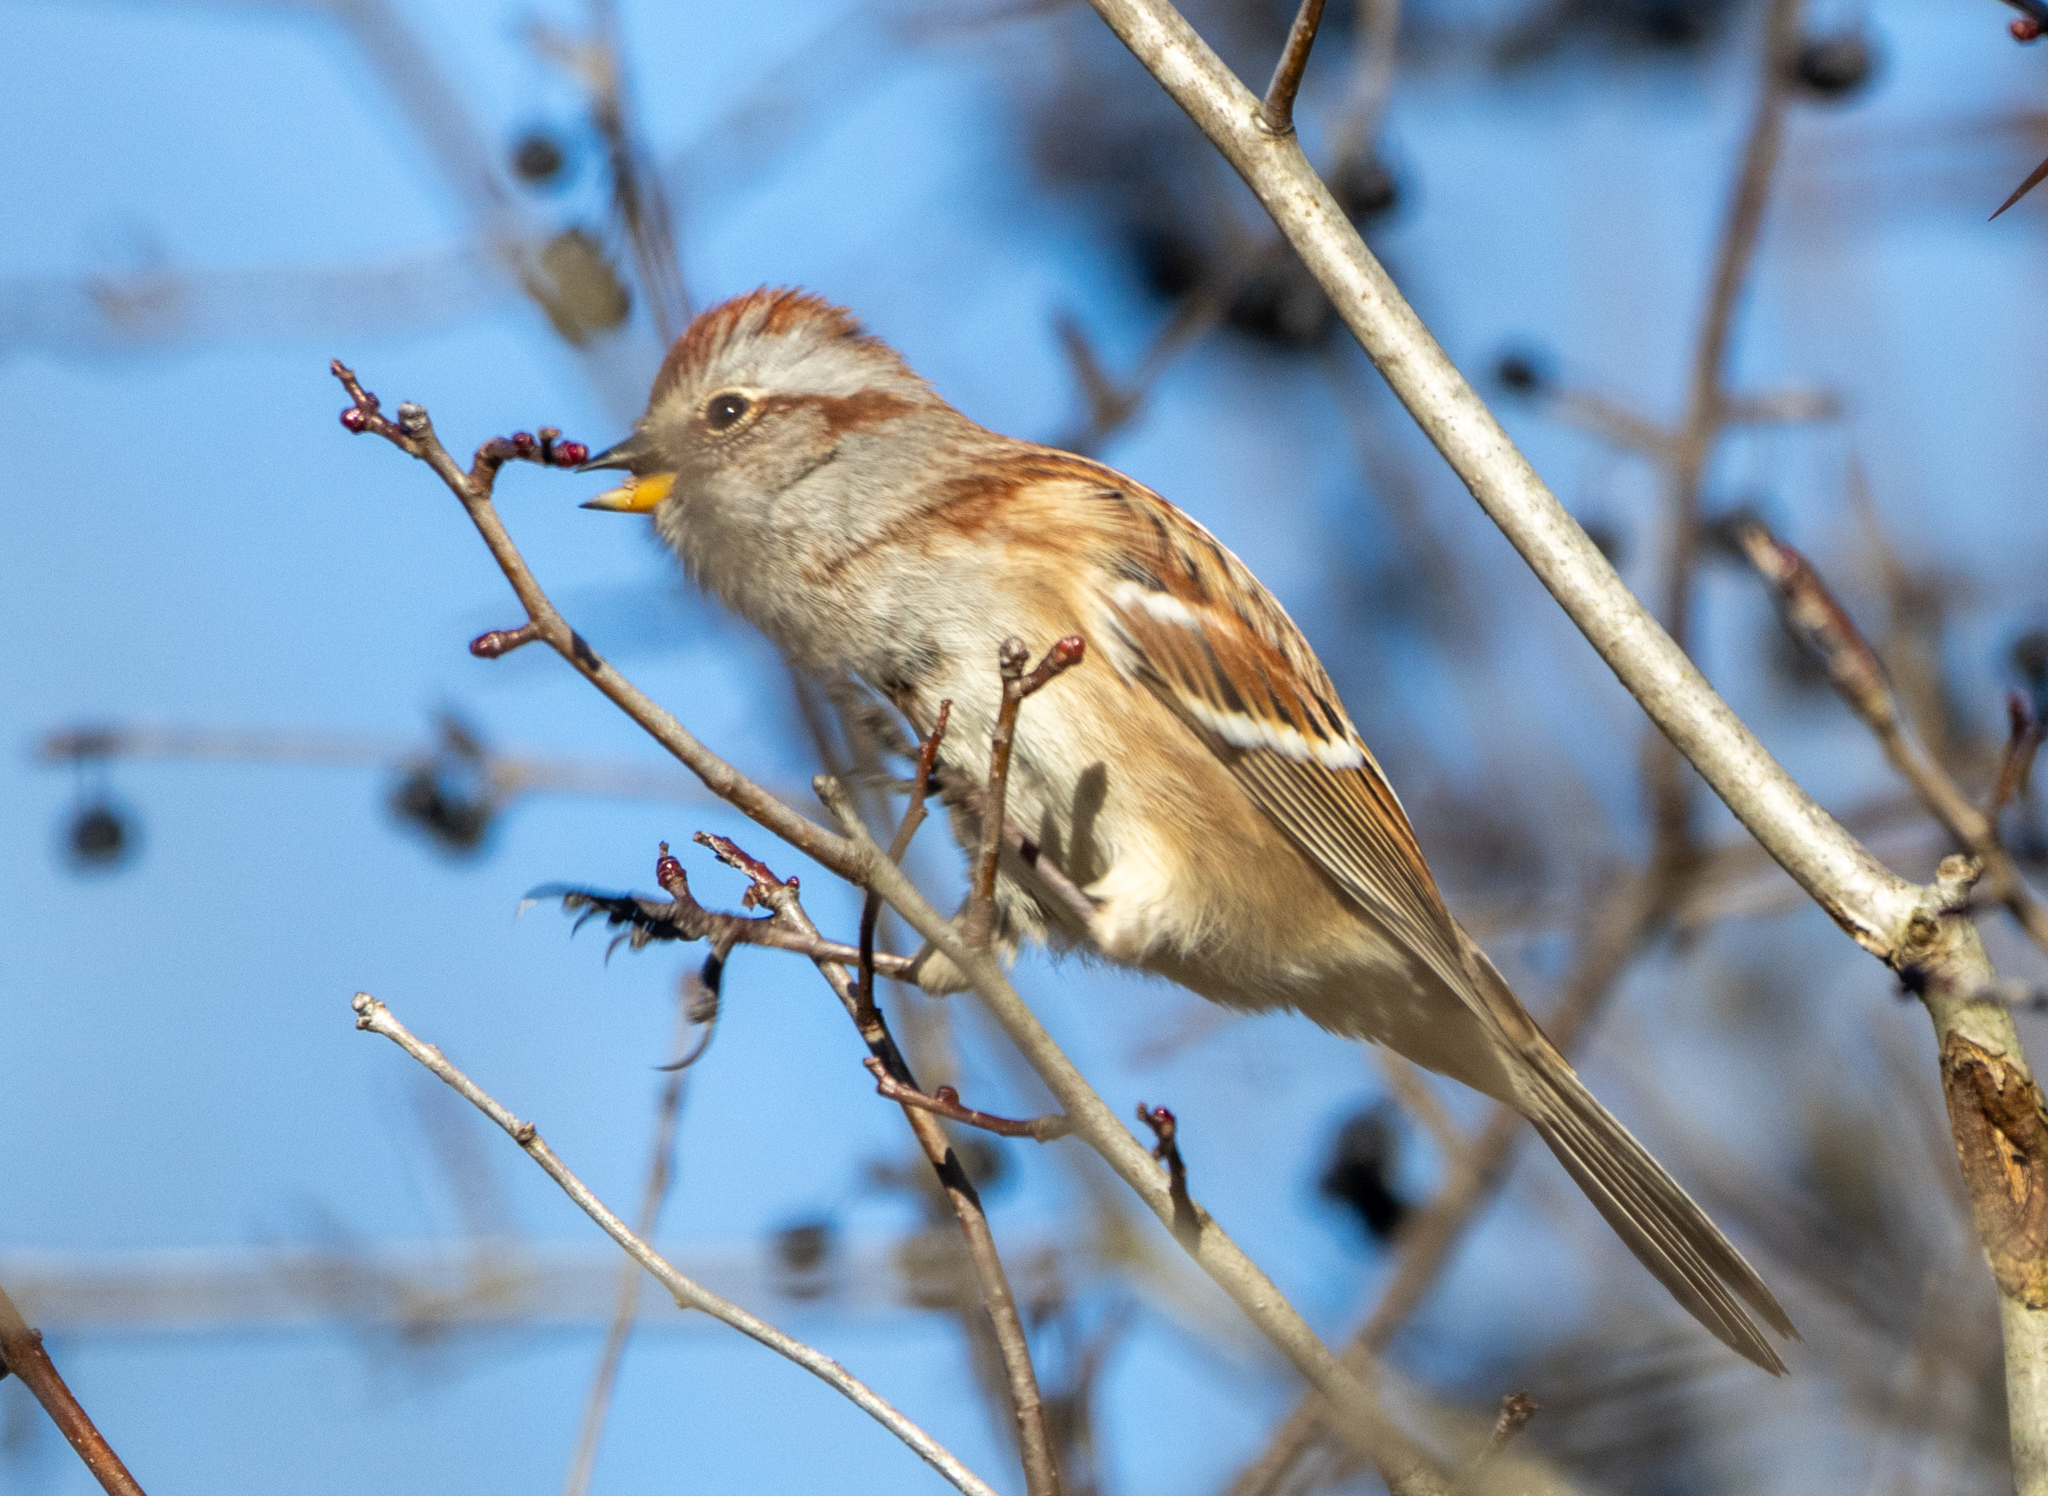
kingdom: Animalia
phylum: Chordata
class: Aves
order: Passeriformes
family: Passerellidae
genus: Spizelloides
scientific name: Spizelloides arborea
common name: American tree sparrow
